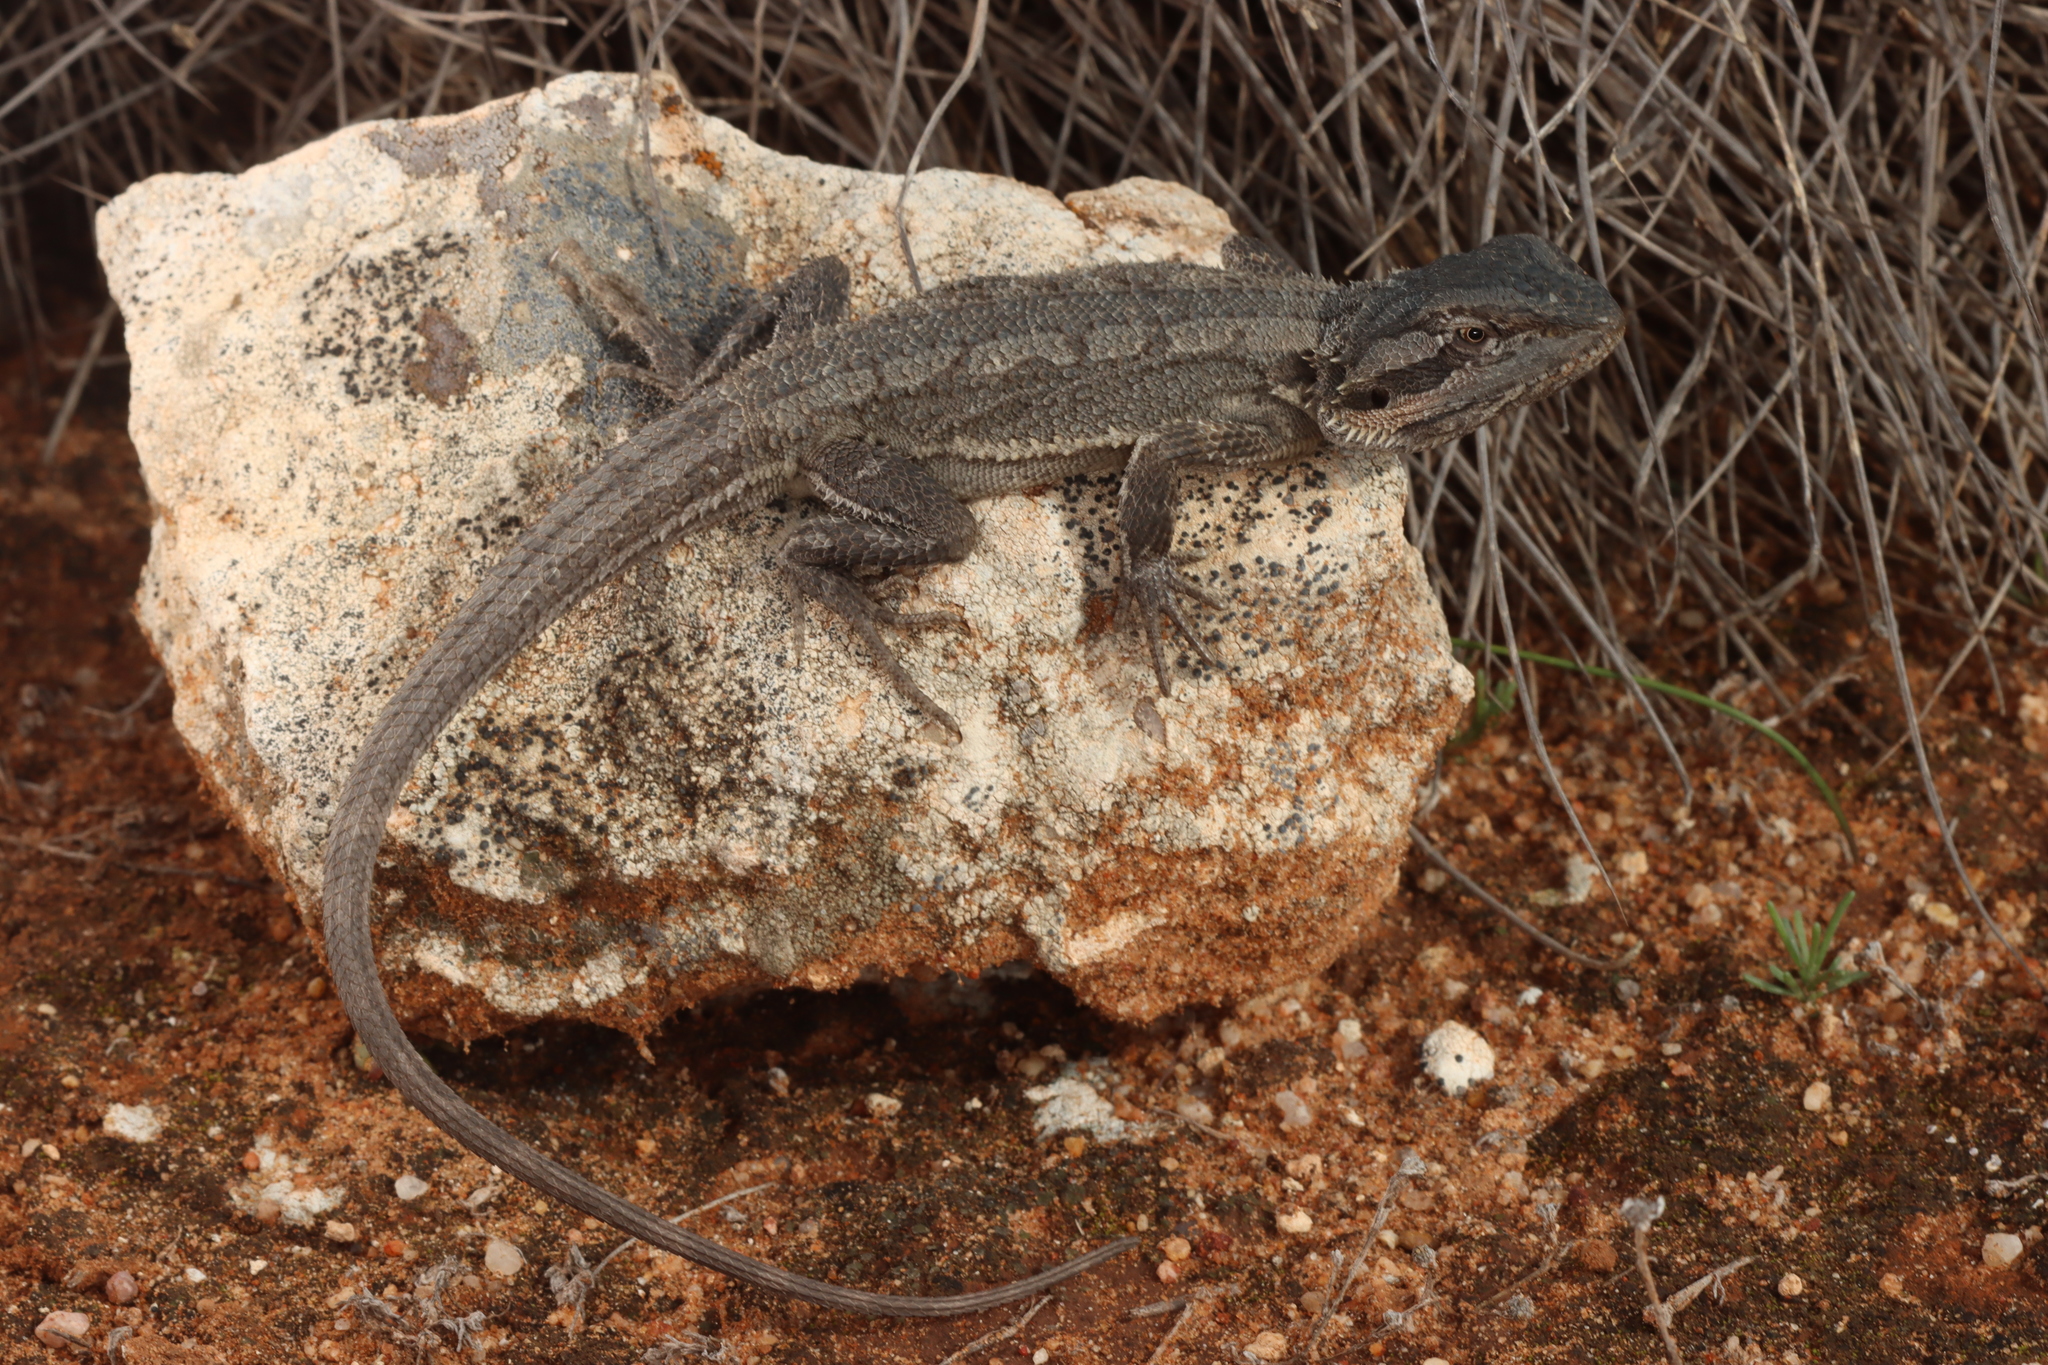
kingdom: Animalia
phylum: Chordata
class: Squamata
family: Agamidae
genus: Pogona
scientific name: Pogona minor
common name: Dwarf bearded dragon
